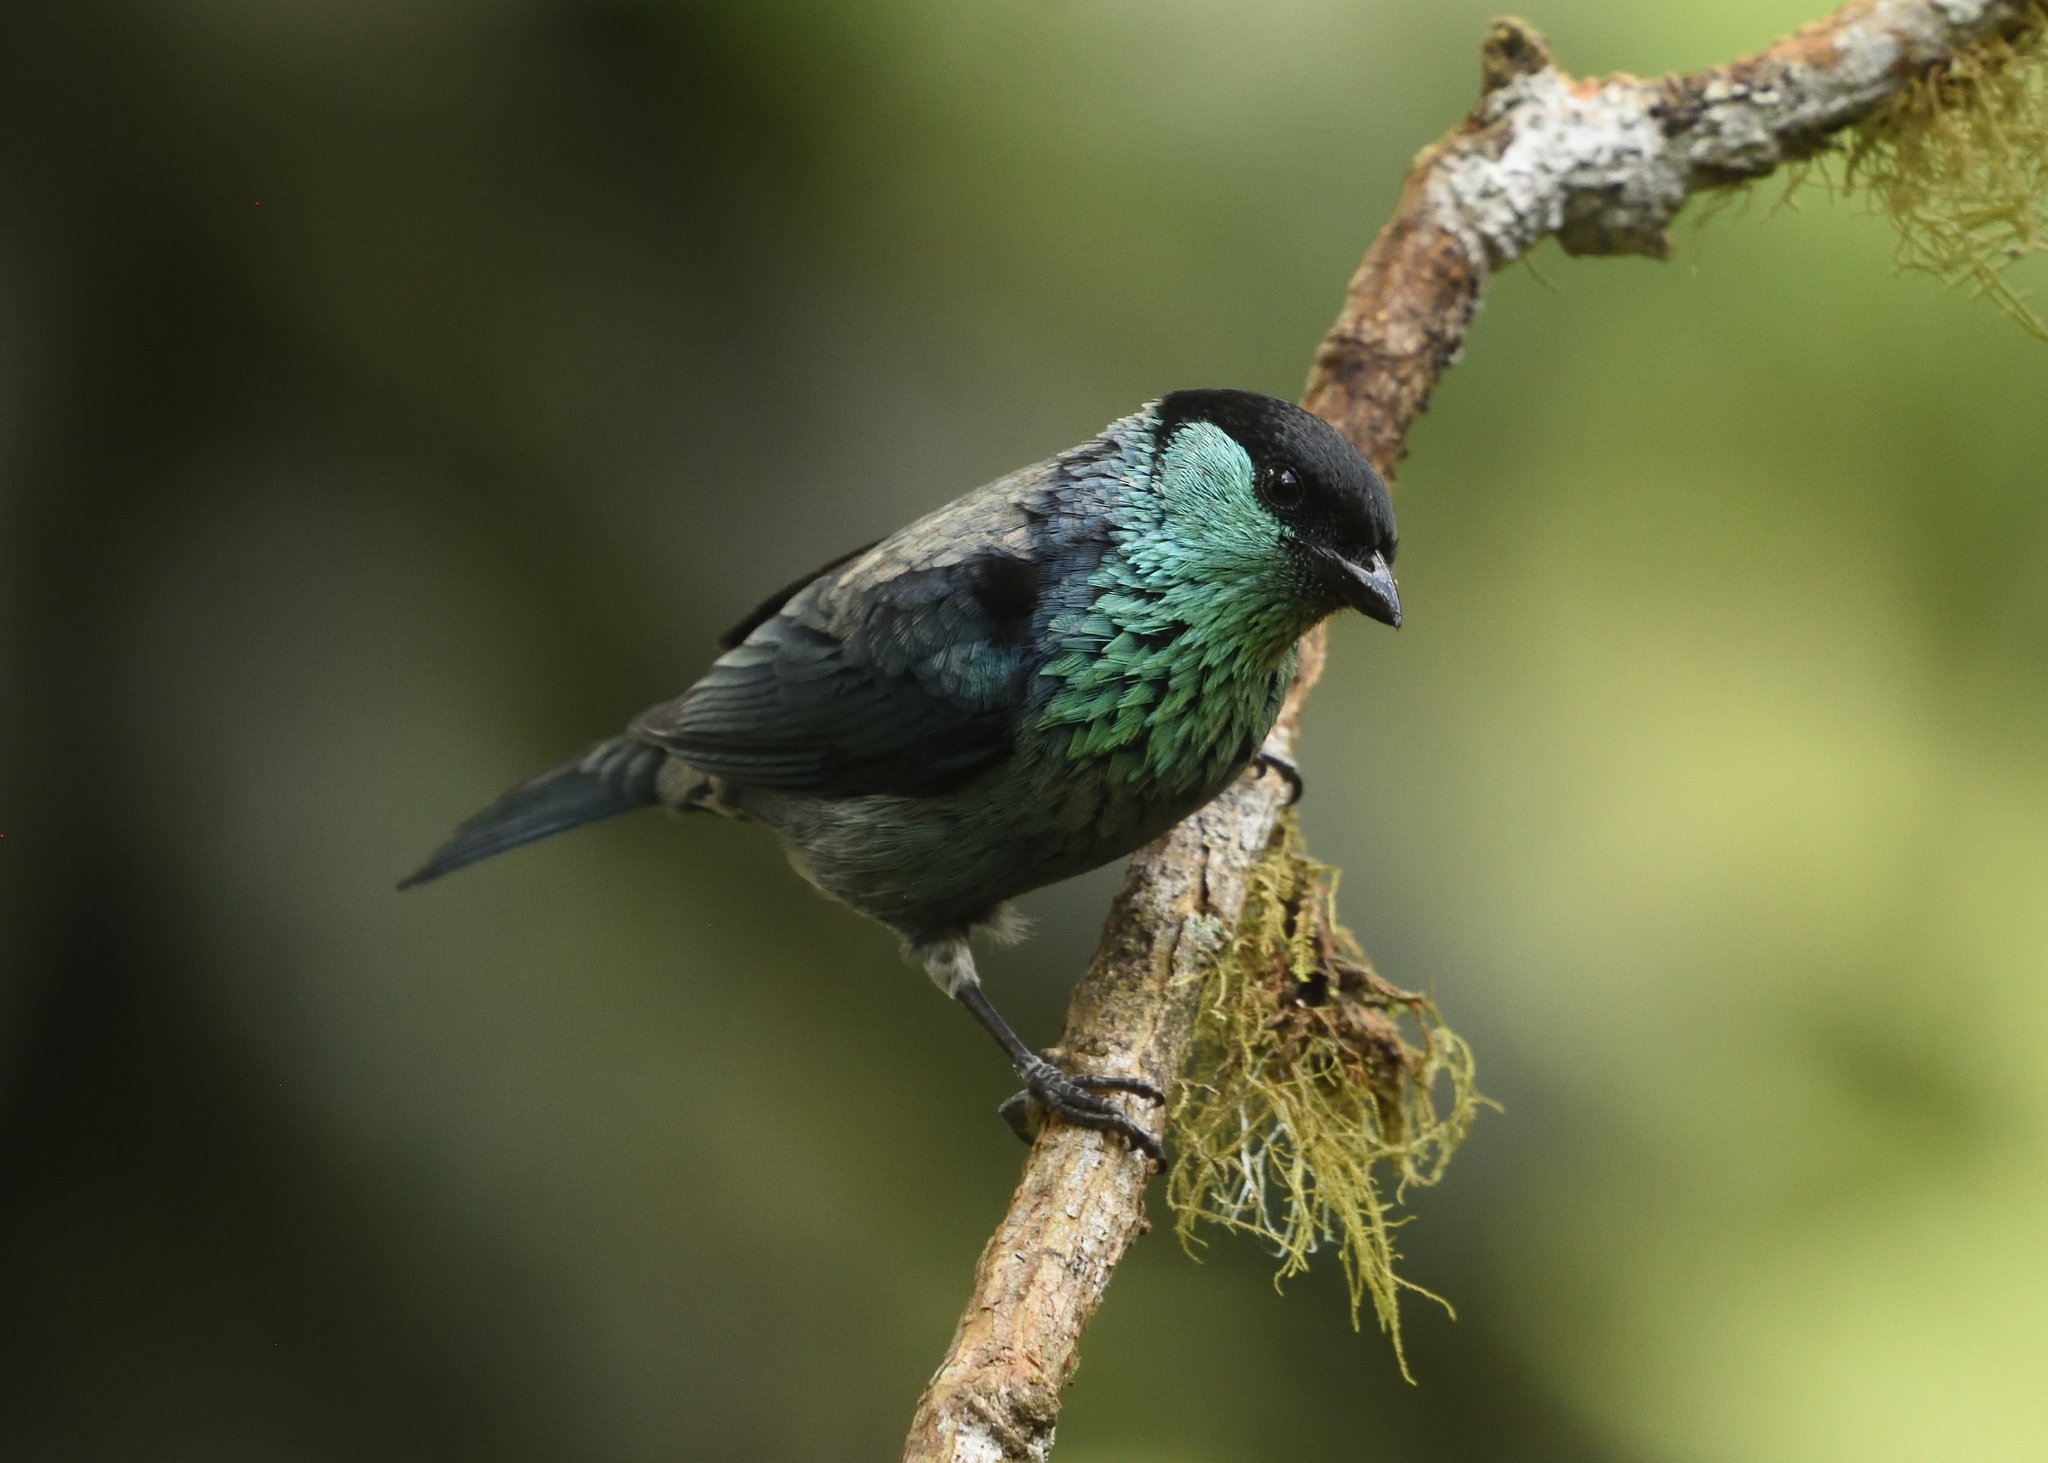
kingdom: Animalia
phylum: Chordata
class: Aves
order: Passeriformes
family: Thraupidae
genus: Stilpnia
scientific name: Stilpnia heinei
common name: Black-capped tanager
